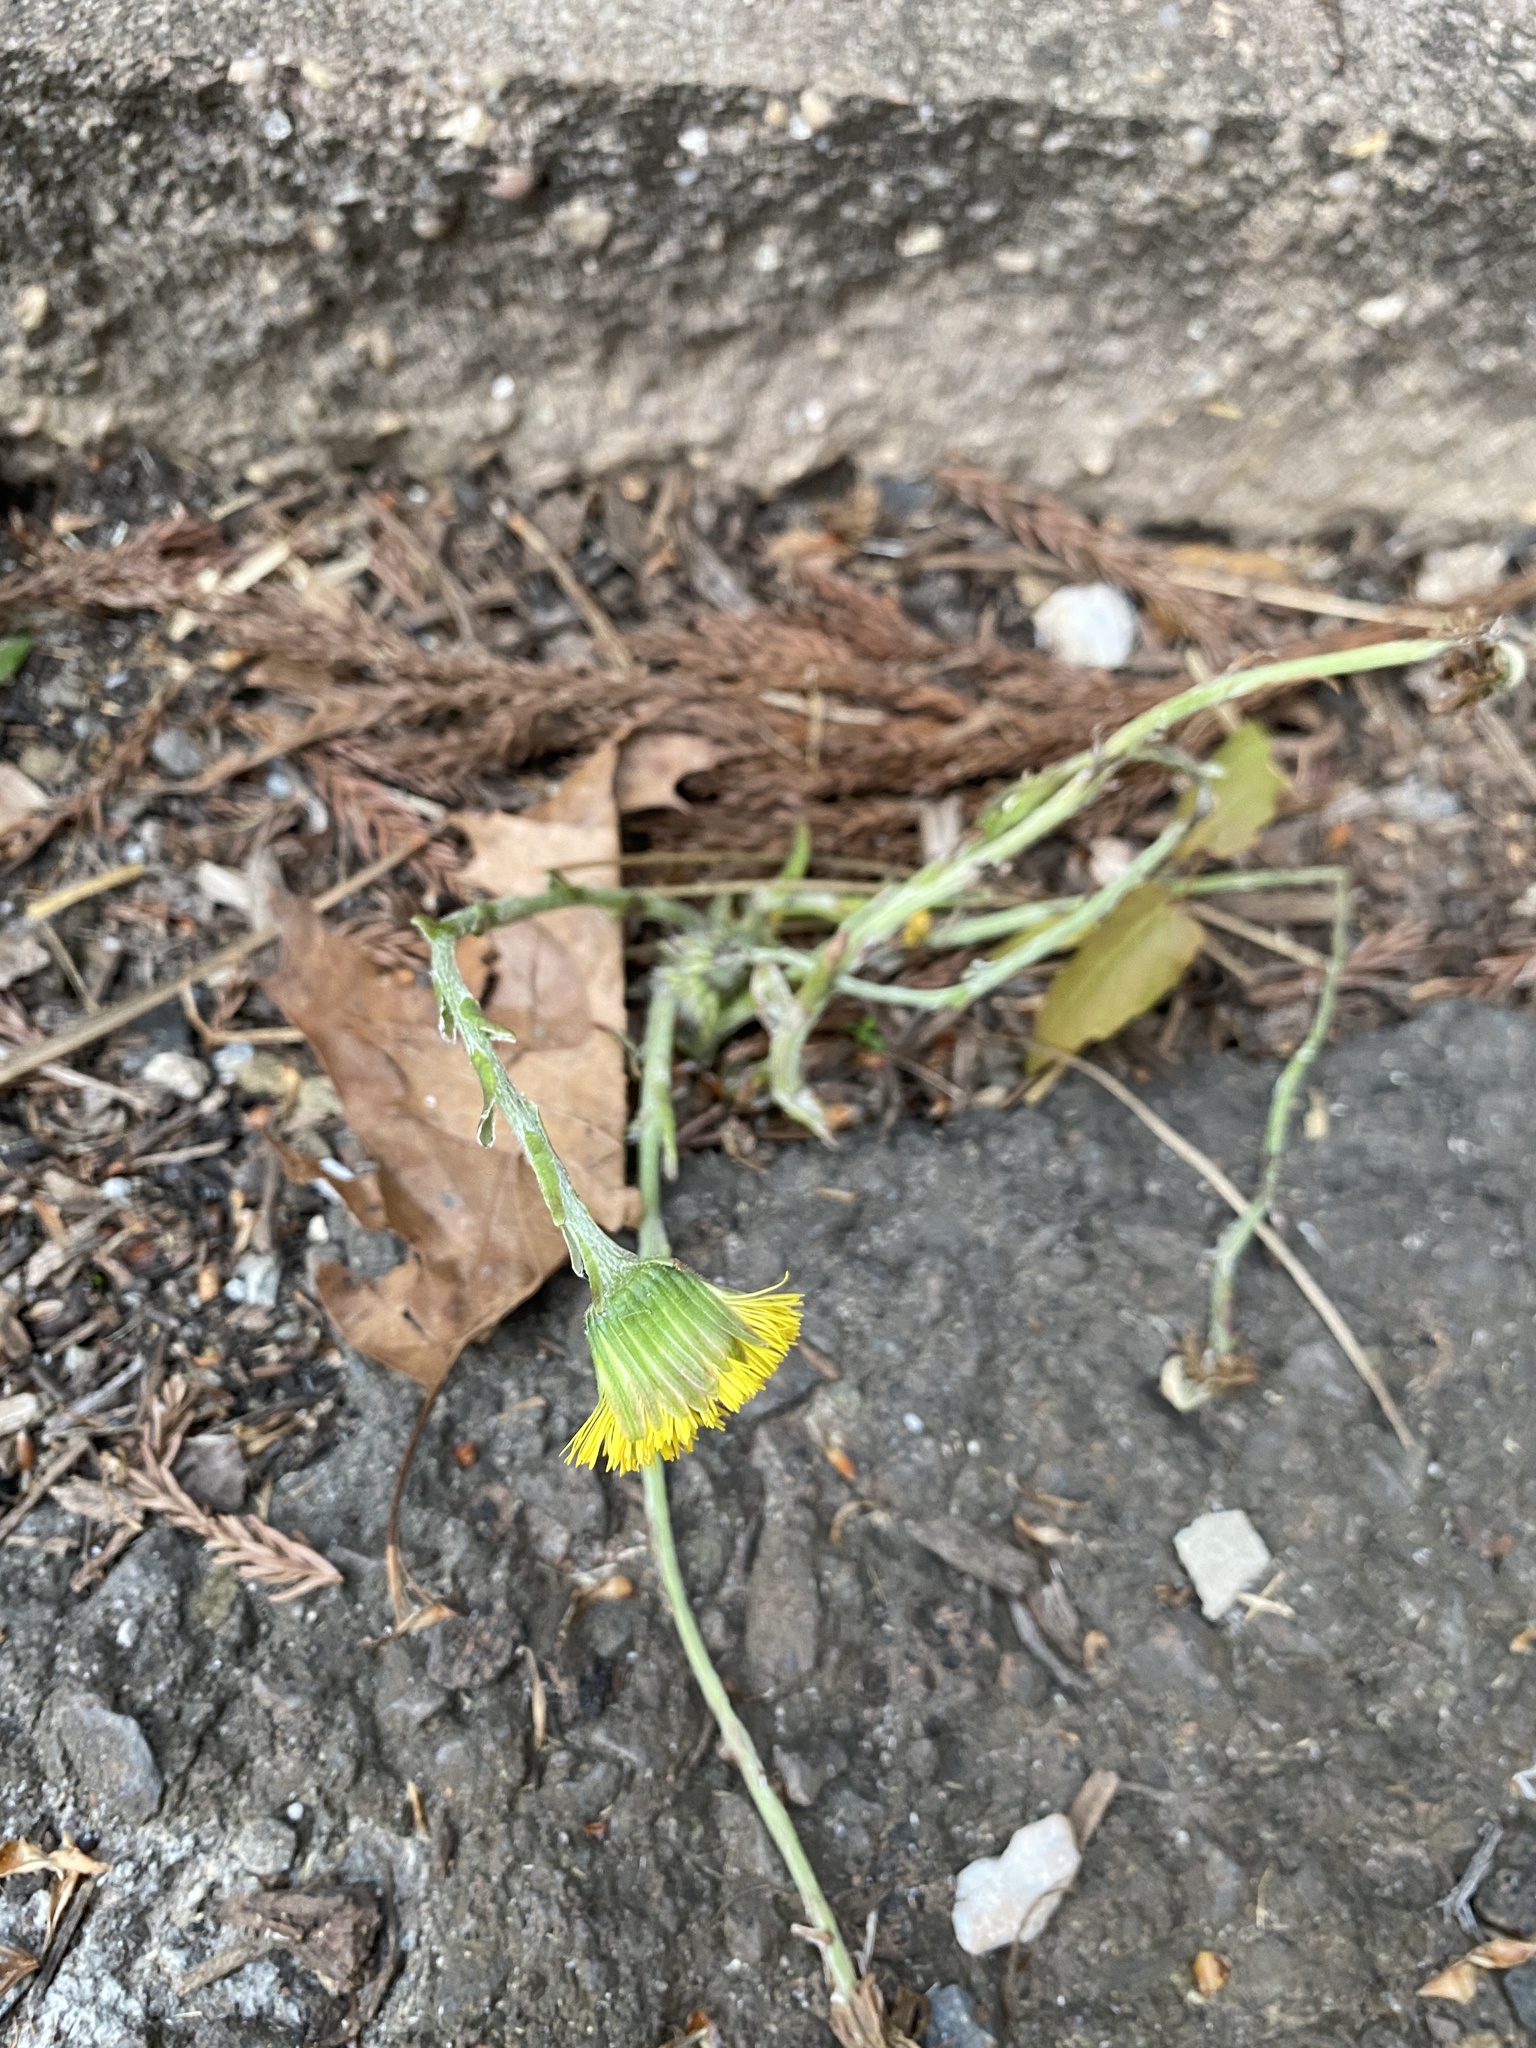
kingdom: Plantae
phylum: Tracheophyta
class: Magnoliopsida
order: Asterales
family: Asteraceae
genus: Tussilago
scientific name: Tussilago farfara
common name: Coltsfoot
